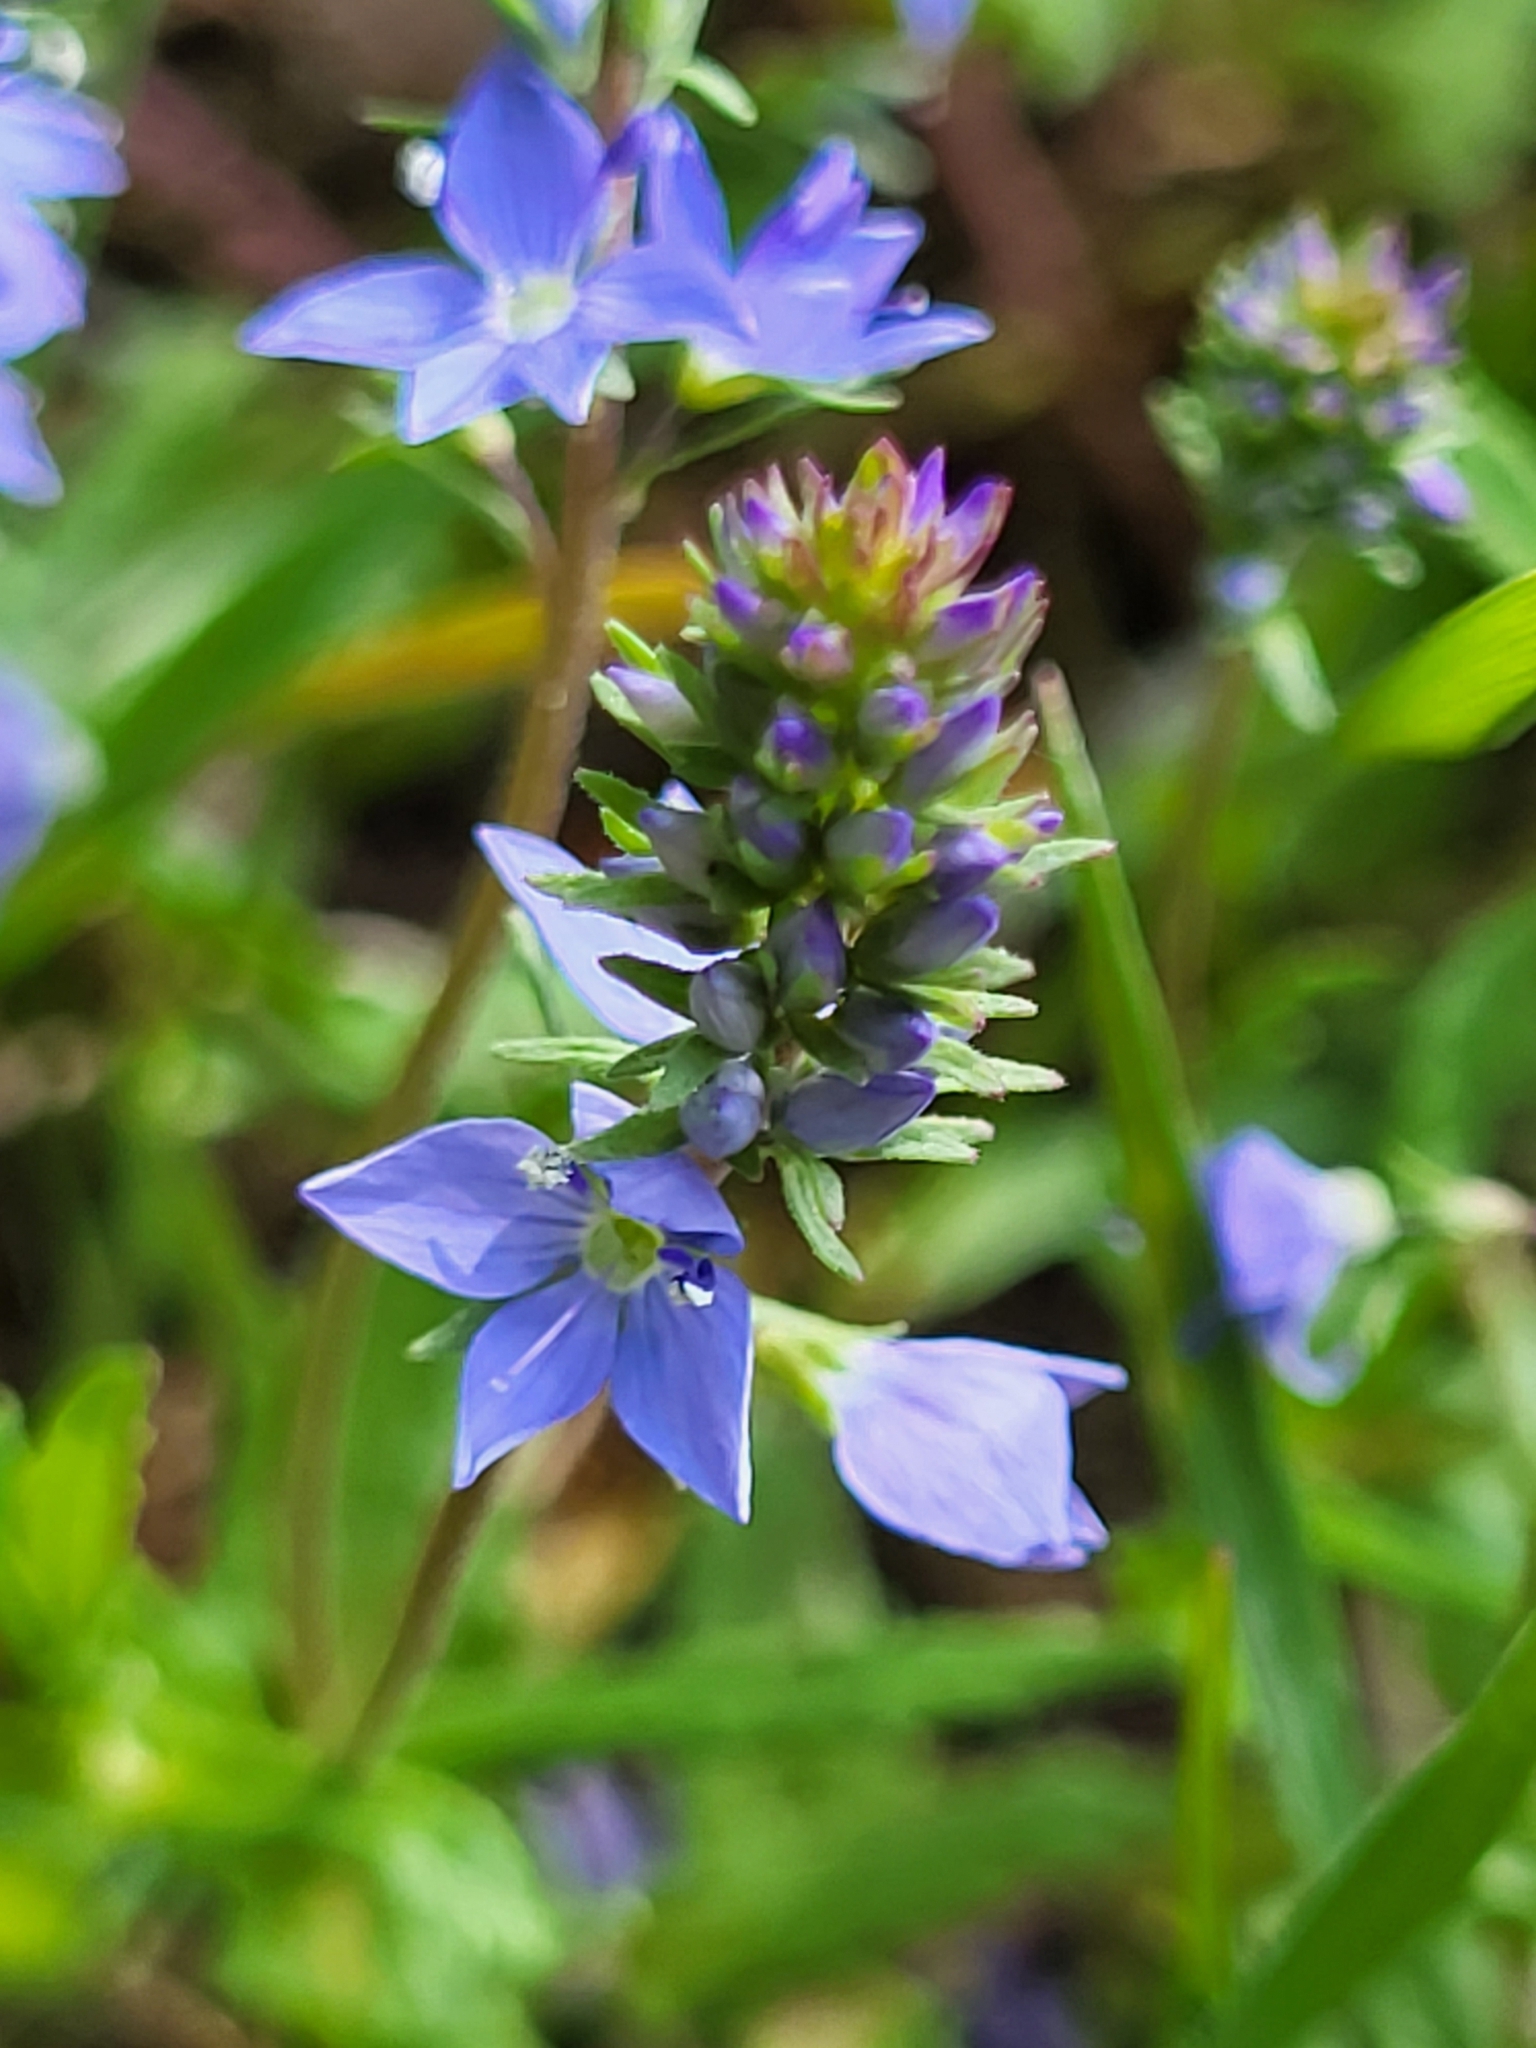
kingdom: Plantae
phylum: Tracheophyta
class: Magnoliopsida
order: Lamiales
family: Plantaginaceae
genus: Veronica
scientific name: Veronica prostrata
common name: Prostrate speedwell
